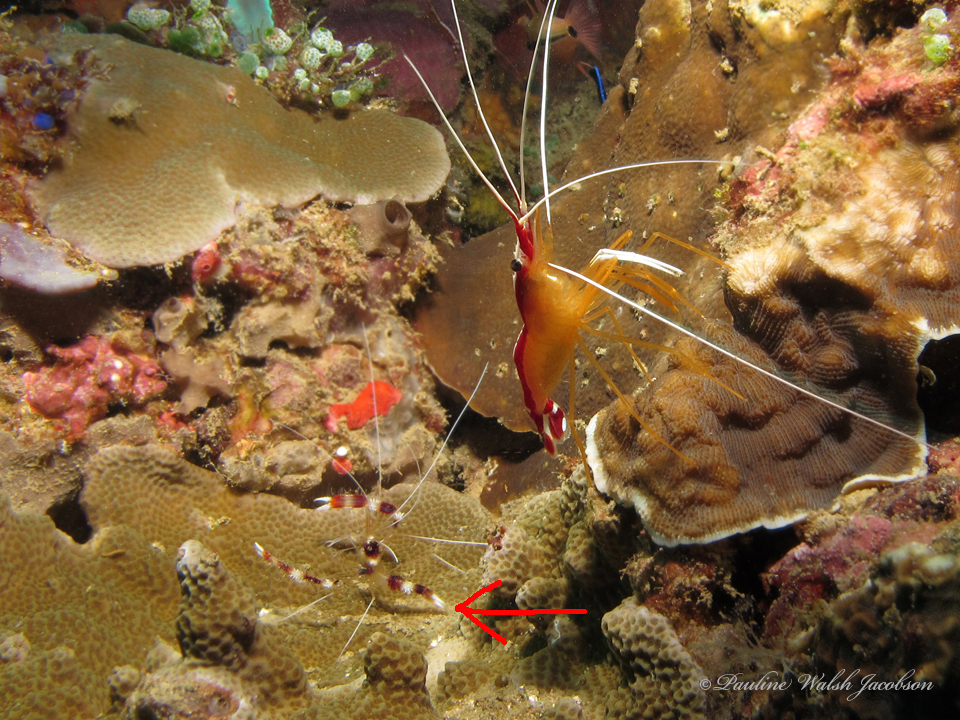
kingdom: Animalia
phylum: Arthropoda
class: Malacostraca
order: Decapoda
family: Stenopodidae
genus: Stenopus
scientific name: Stenopus hispidus
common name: Banded coral shrimp
